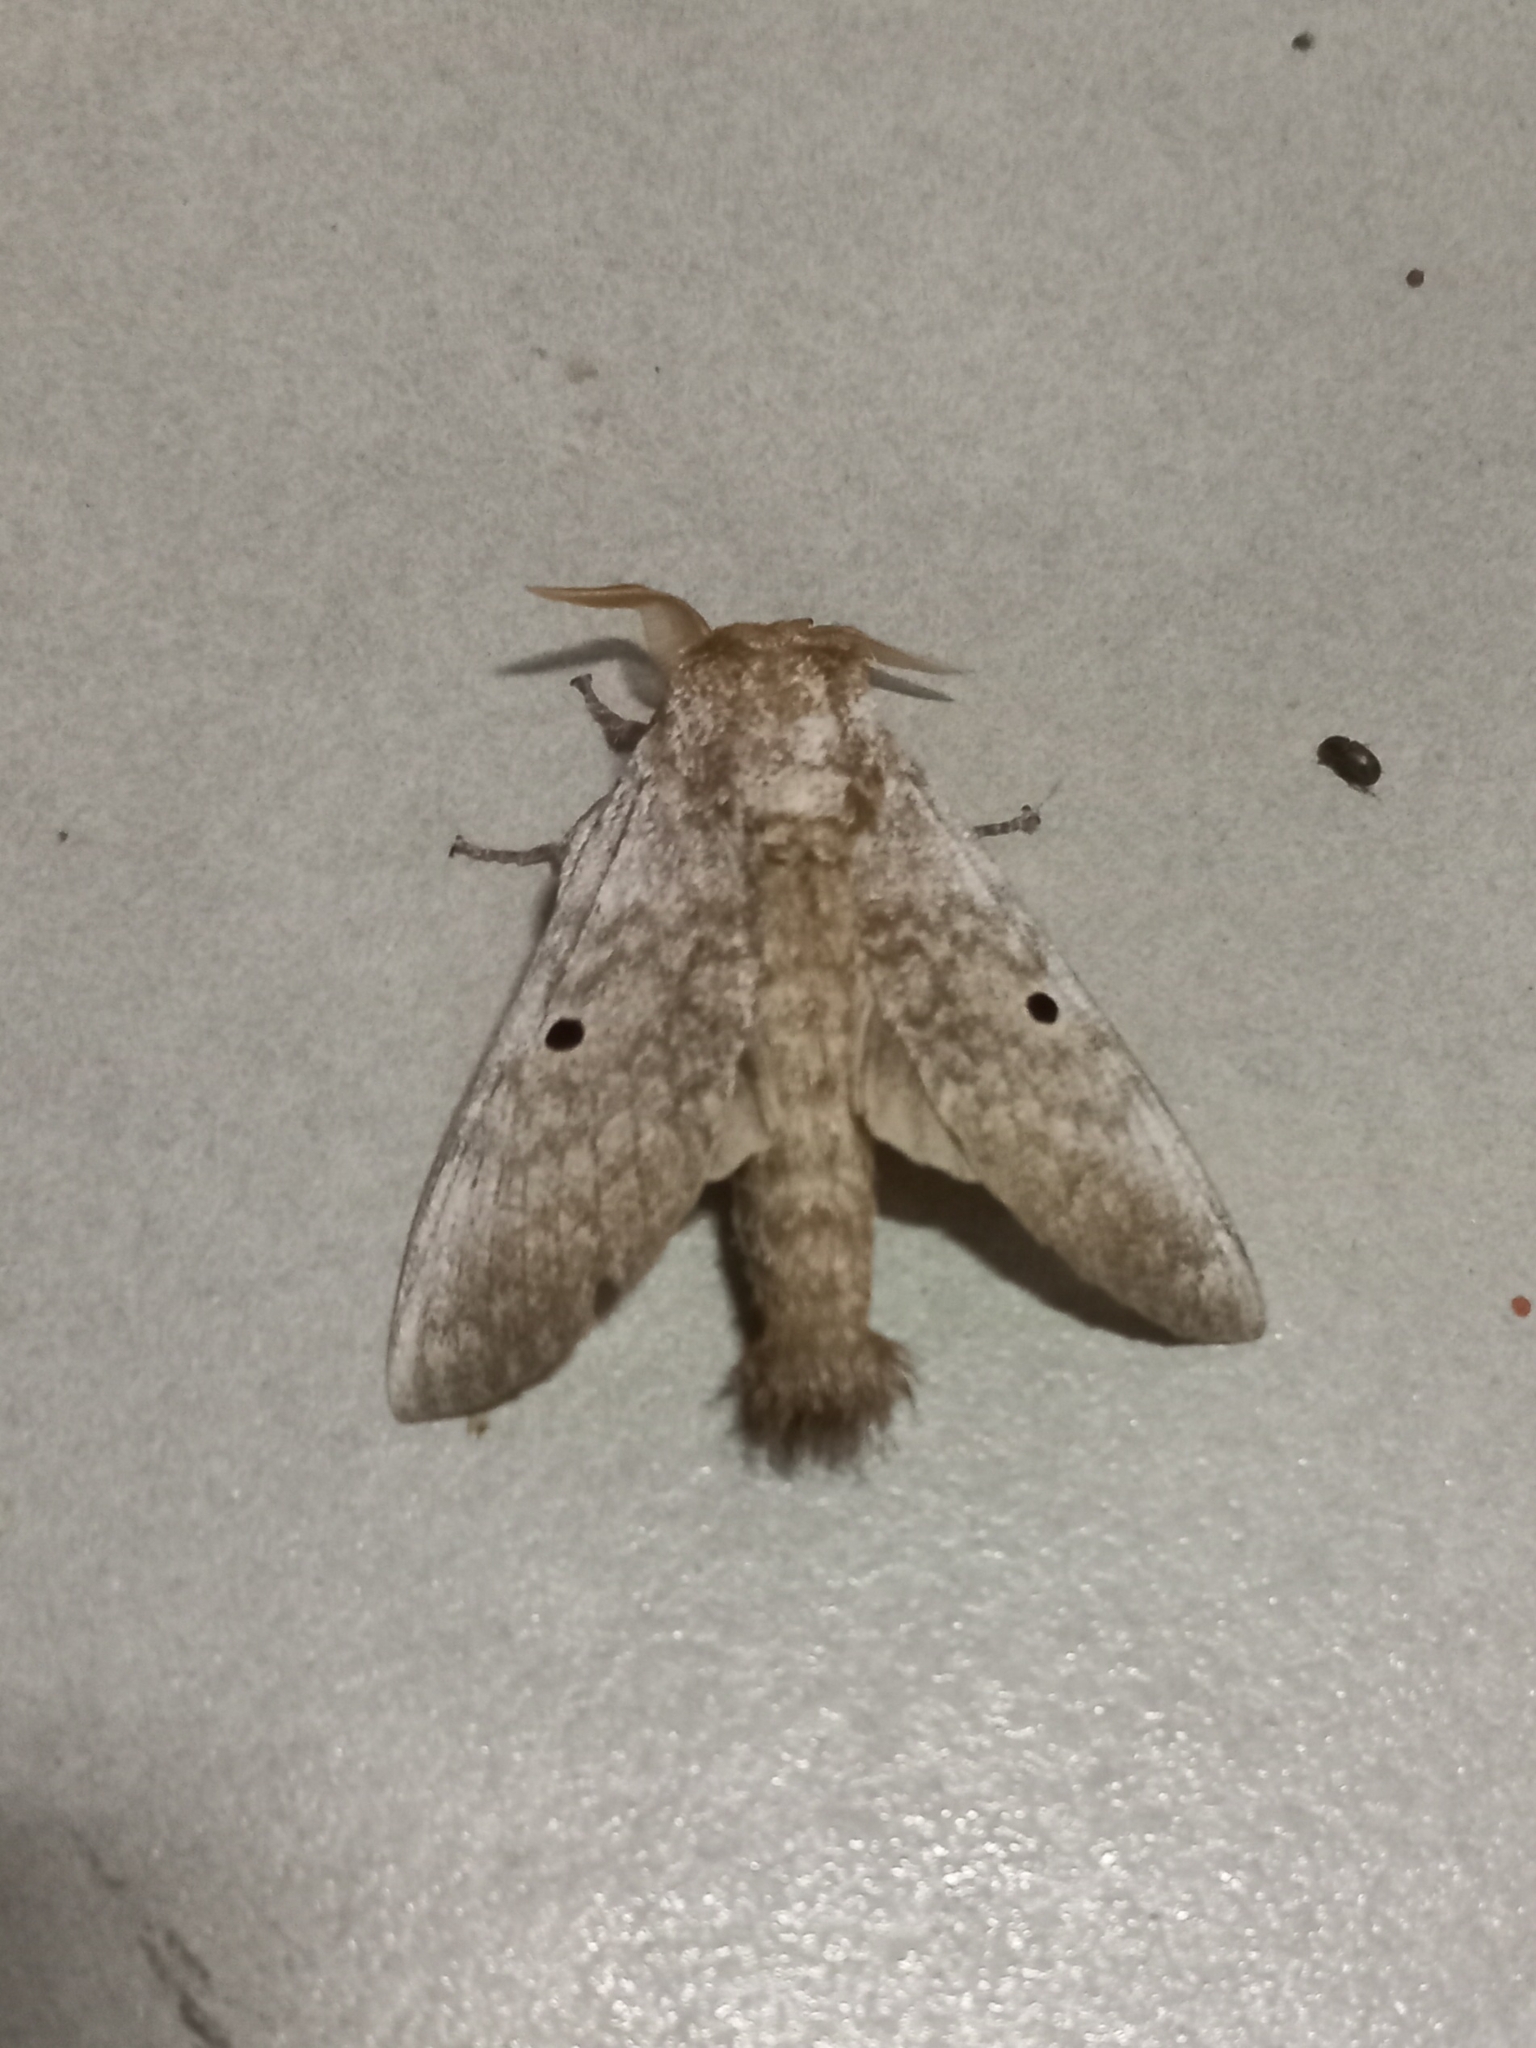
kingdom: Animalia
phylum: Arthropoda
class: Insecta
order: Lepidoptera
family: Lasiocampidae
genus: Gastroplakaeis
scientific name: Gastroplakaeis meridionalis
